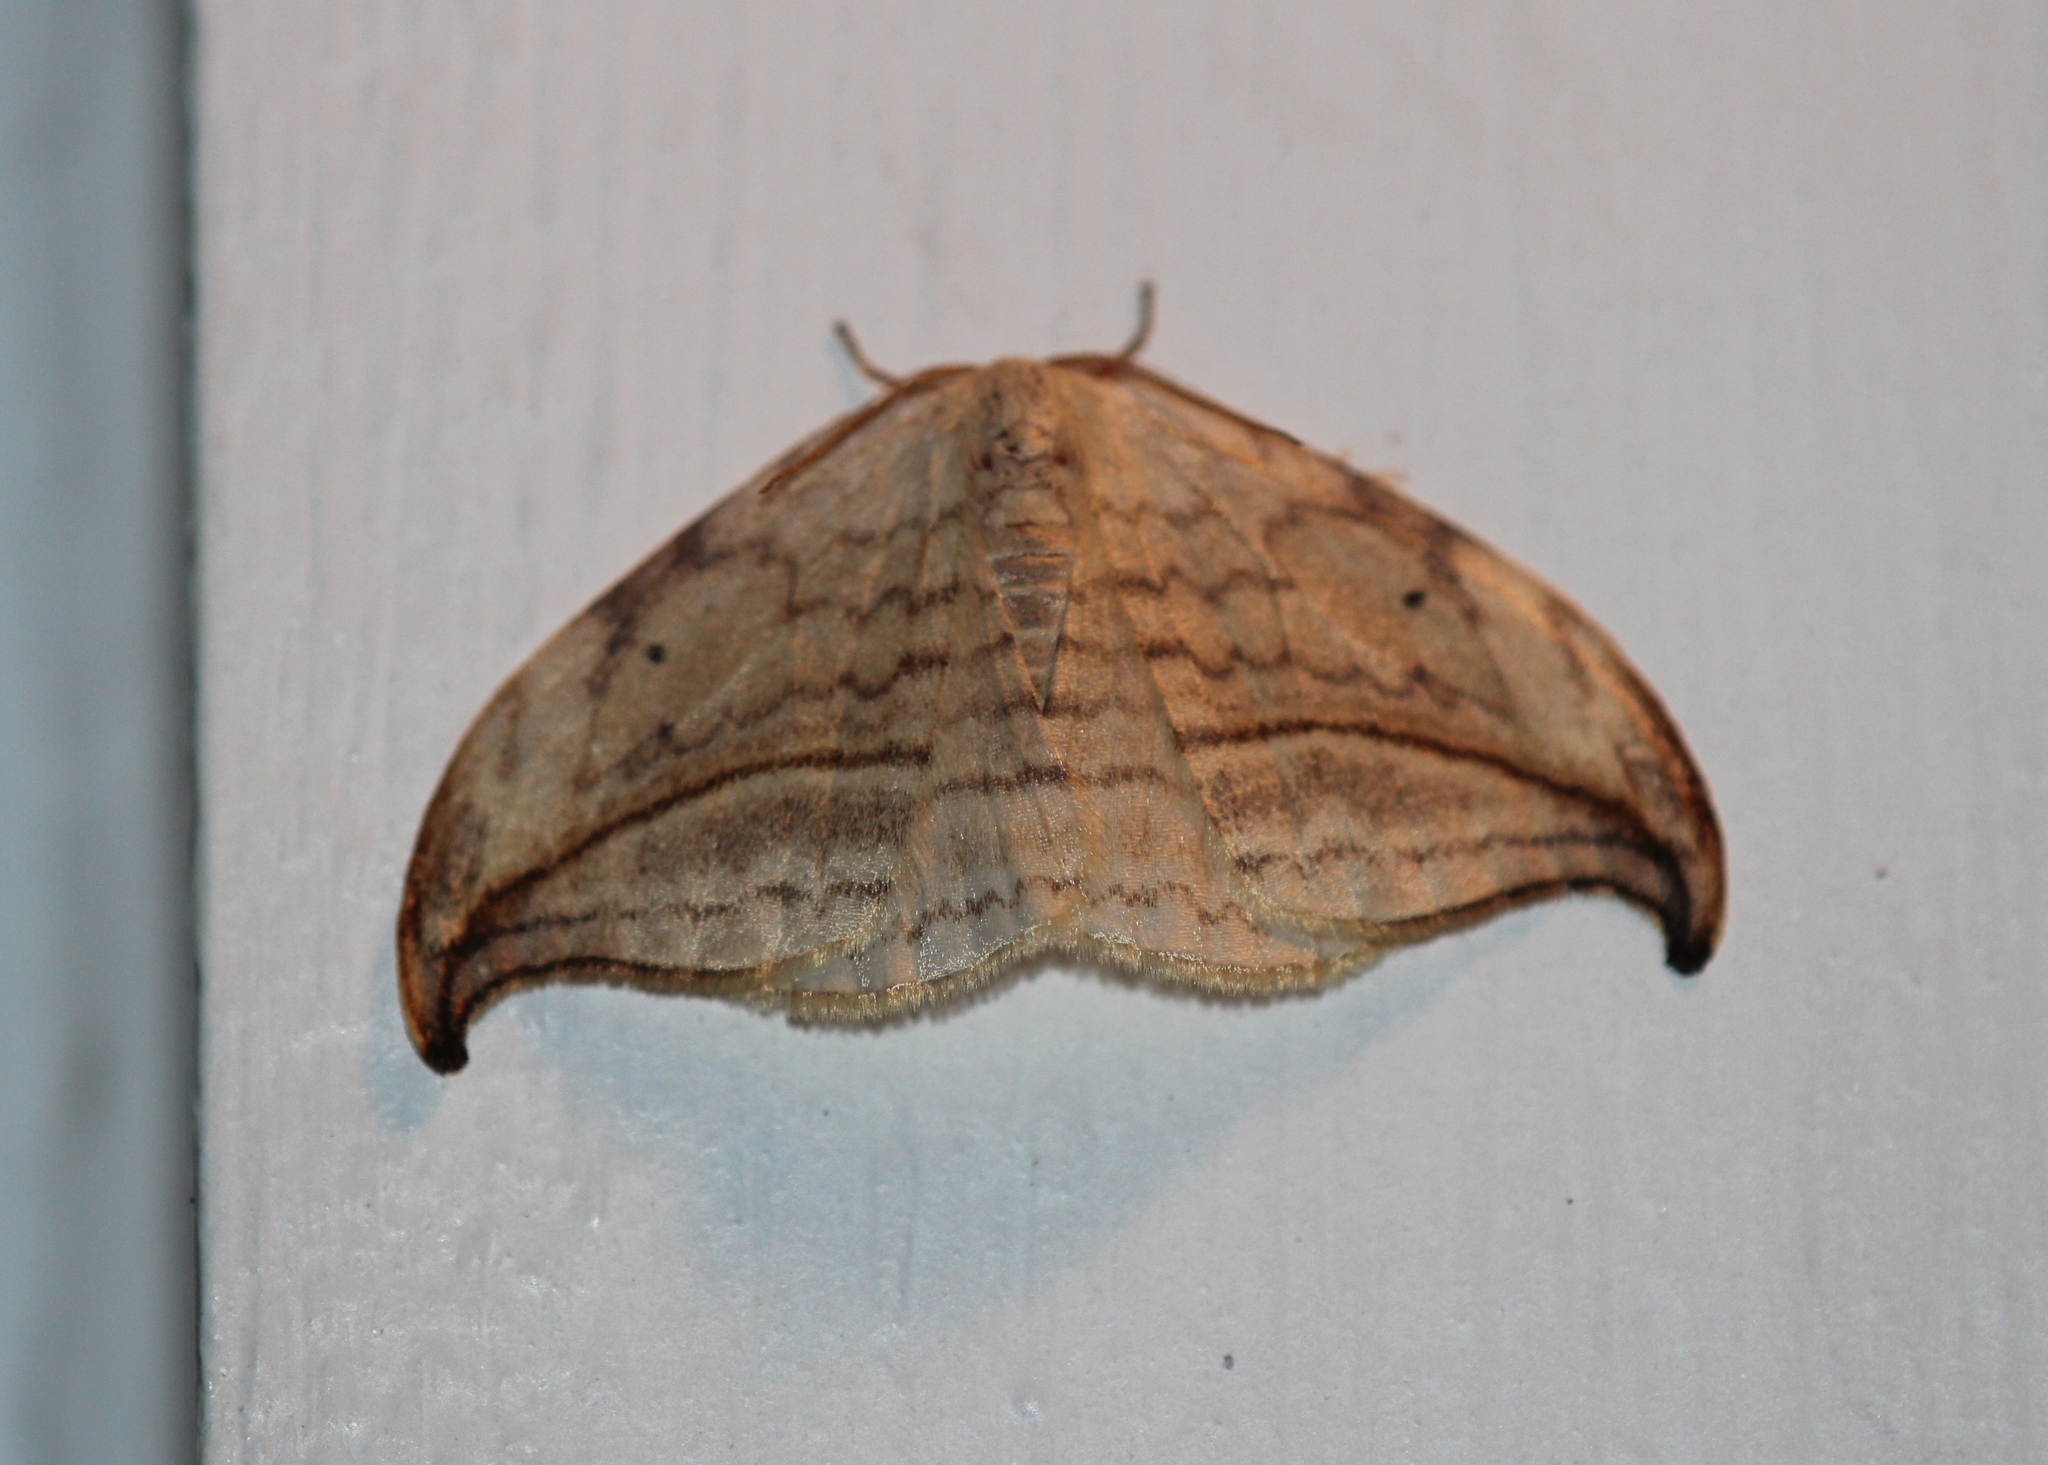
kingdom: Animalia
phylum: Arthropoda
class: Insecta
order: Lepidoptera
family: Drepanidae
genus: Drepana
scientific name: Drepana arcuata
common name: Arched hooktip moth
